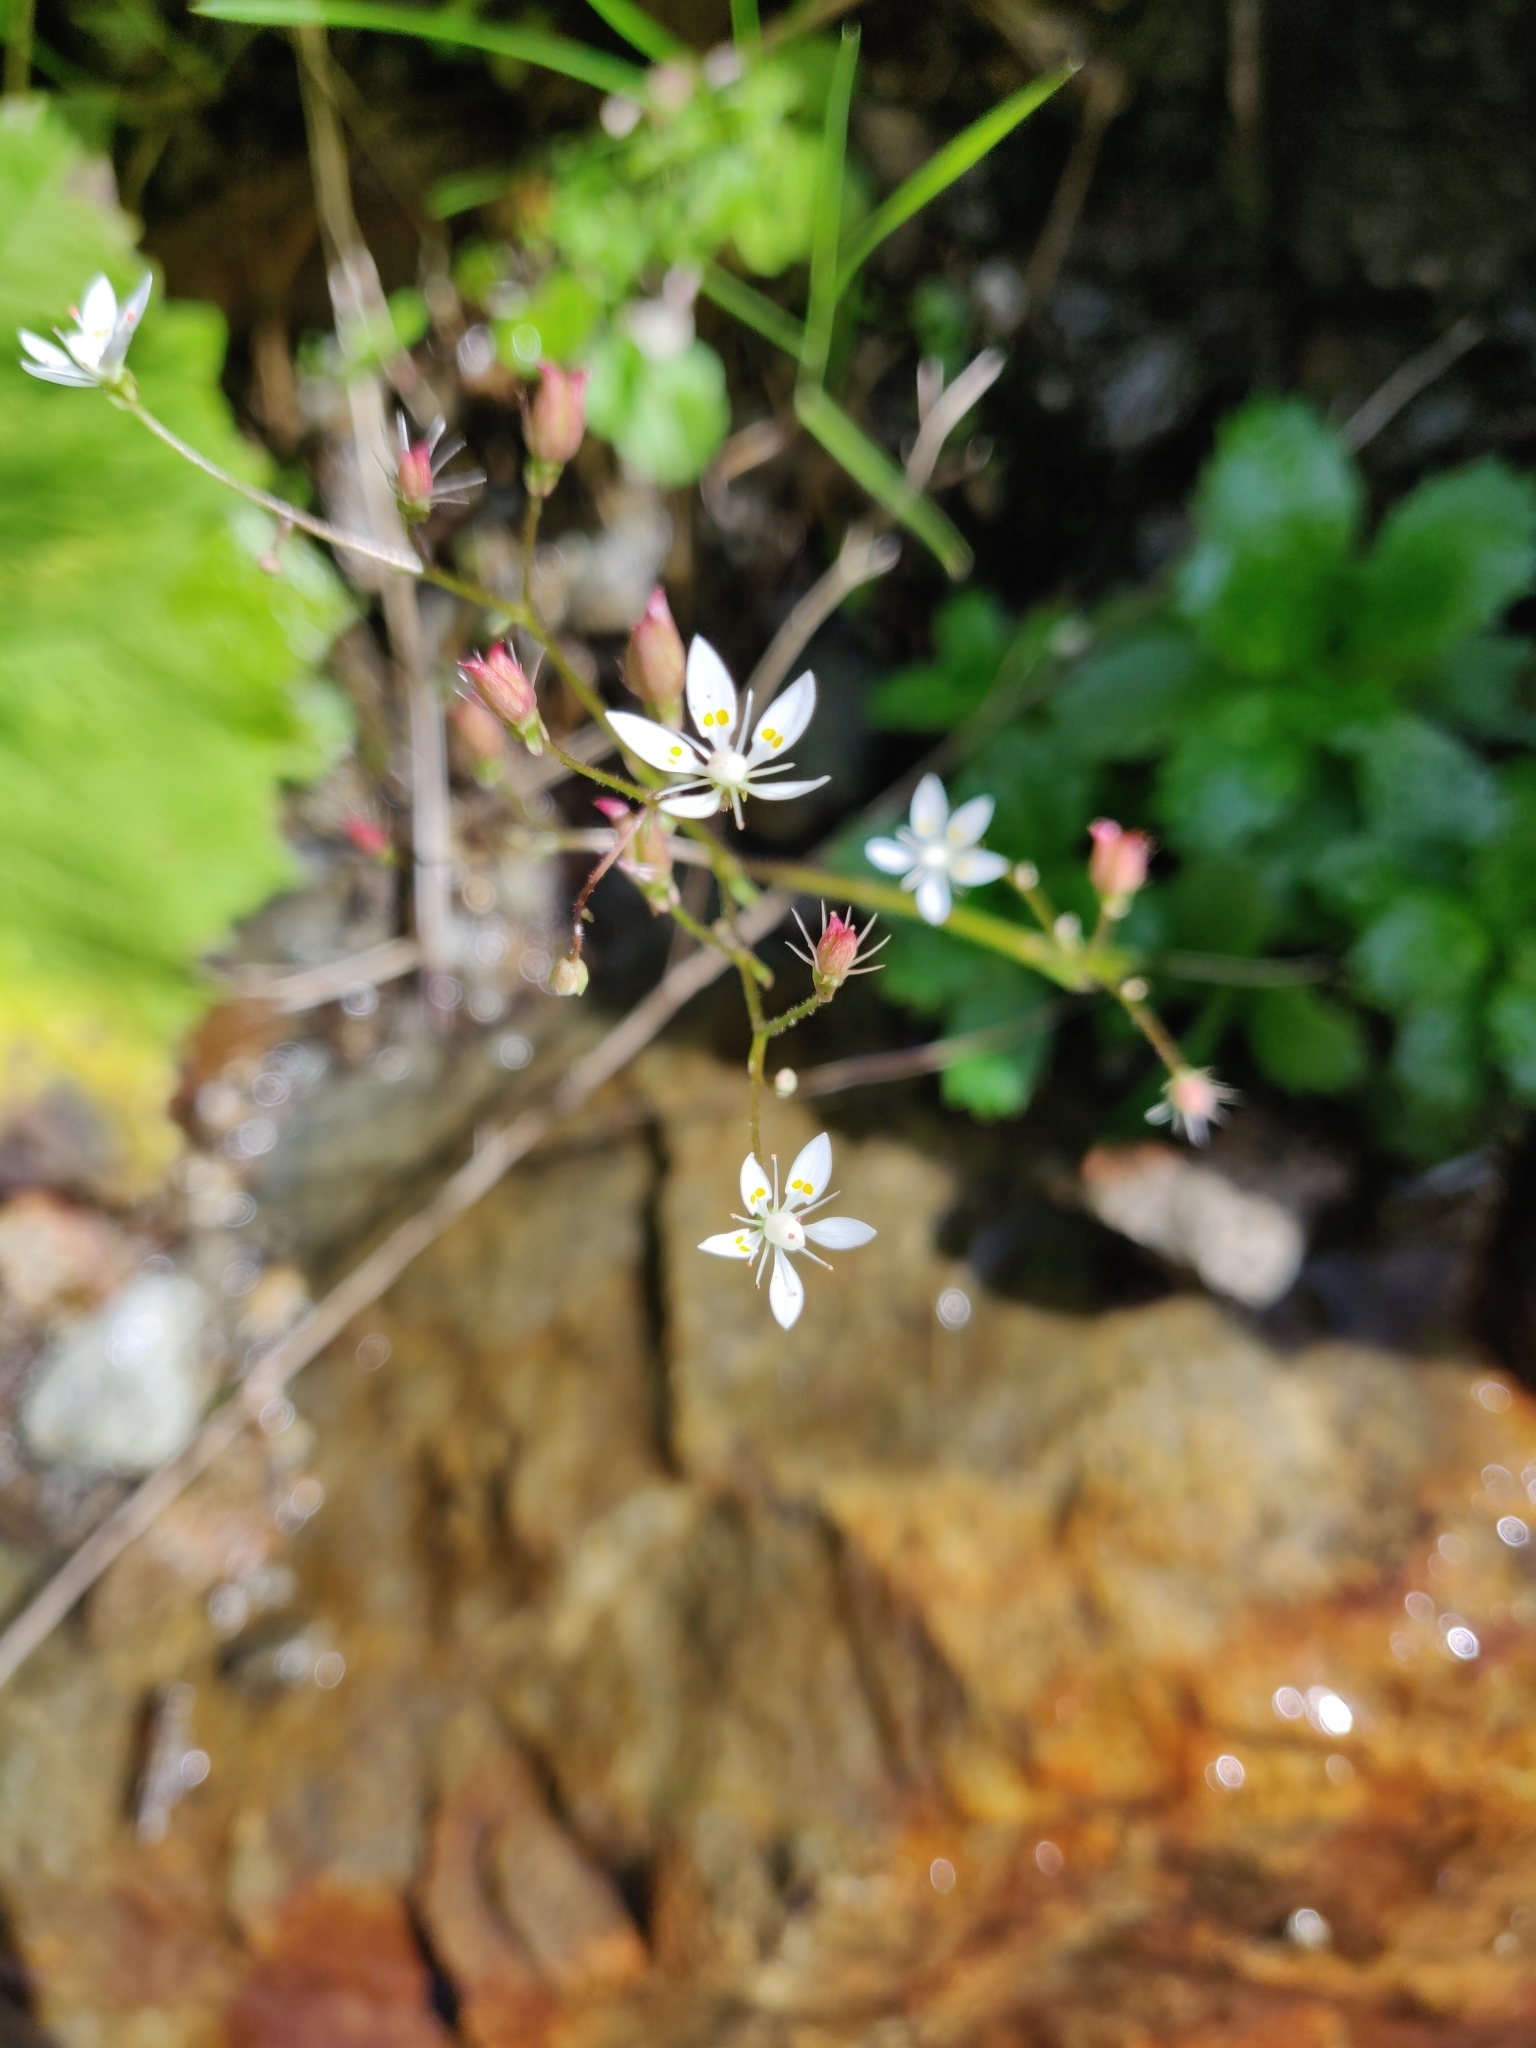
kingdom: Plantae
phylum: Tracheophyta
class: Magnoliopsida
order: Saxifragales
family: Saxifragaceae
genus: Micranthes
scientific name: Micranthes stellaris
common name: Starry saxifrage
